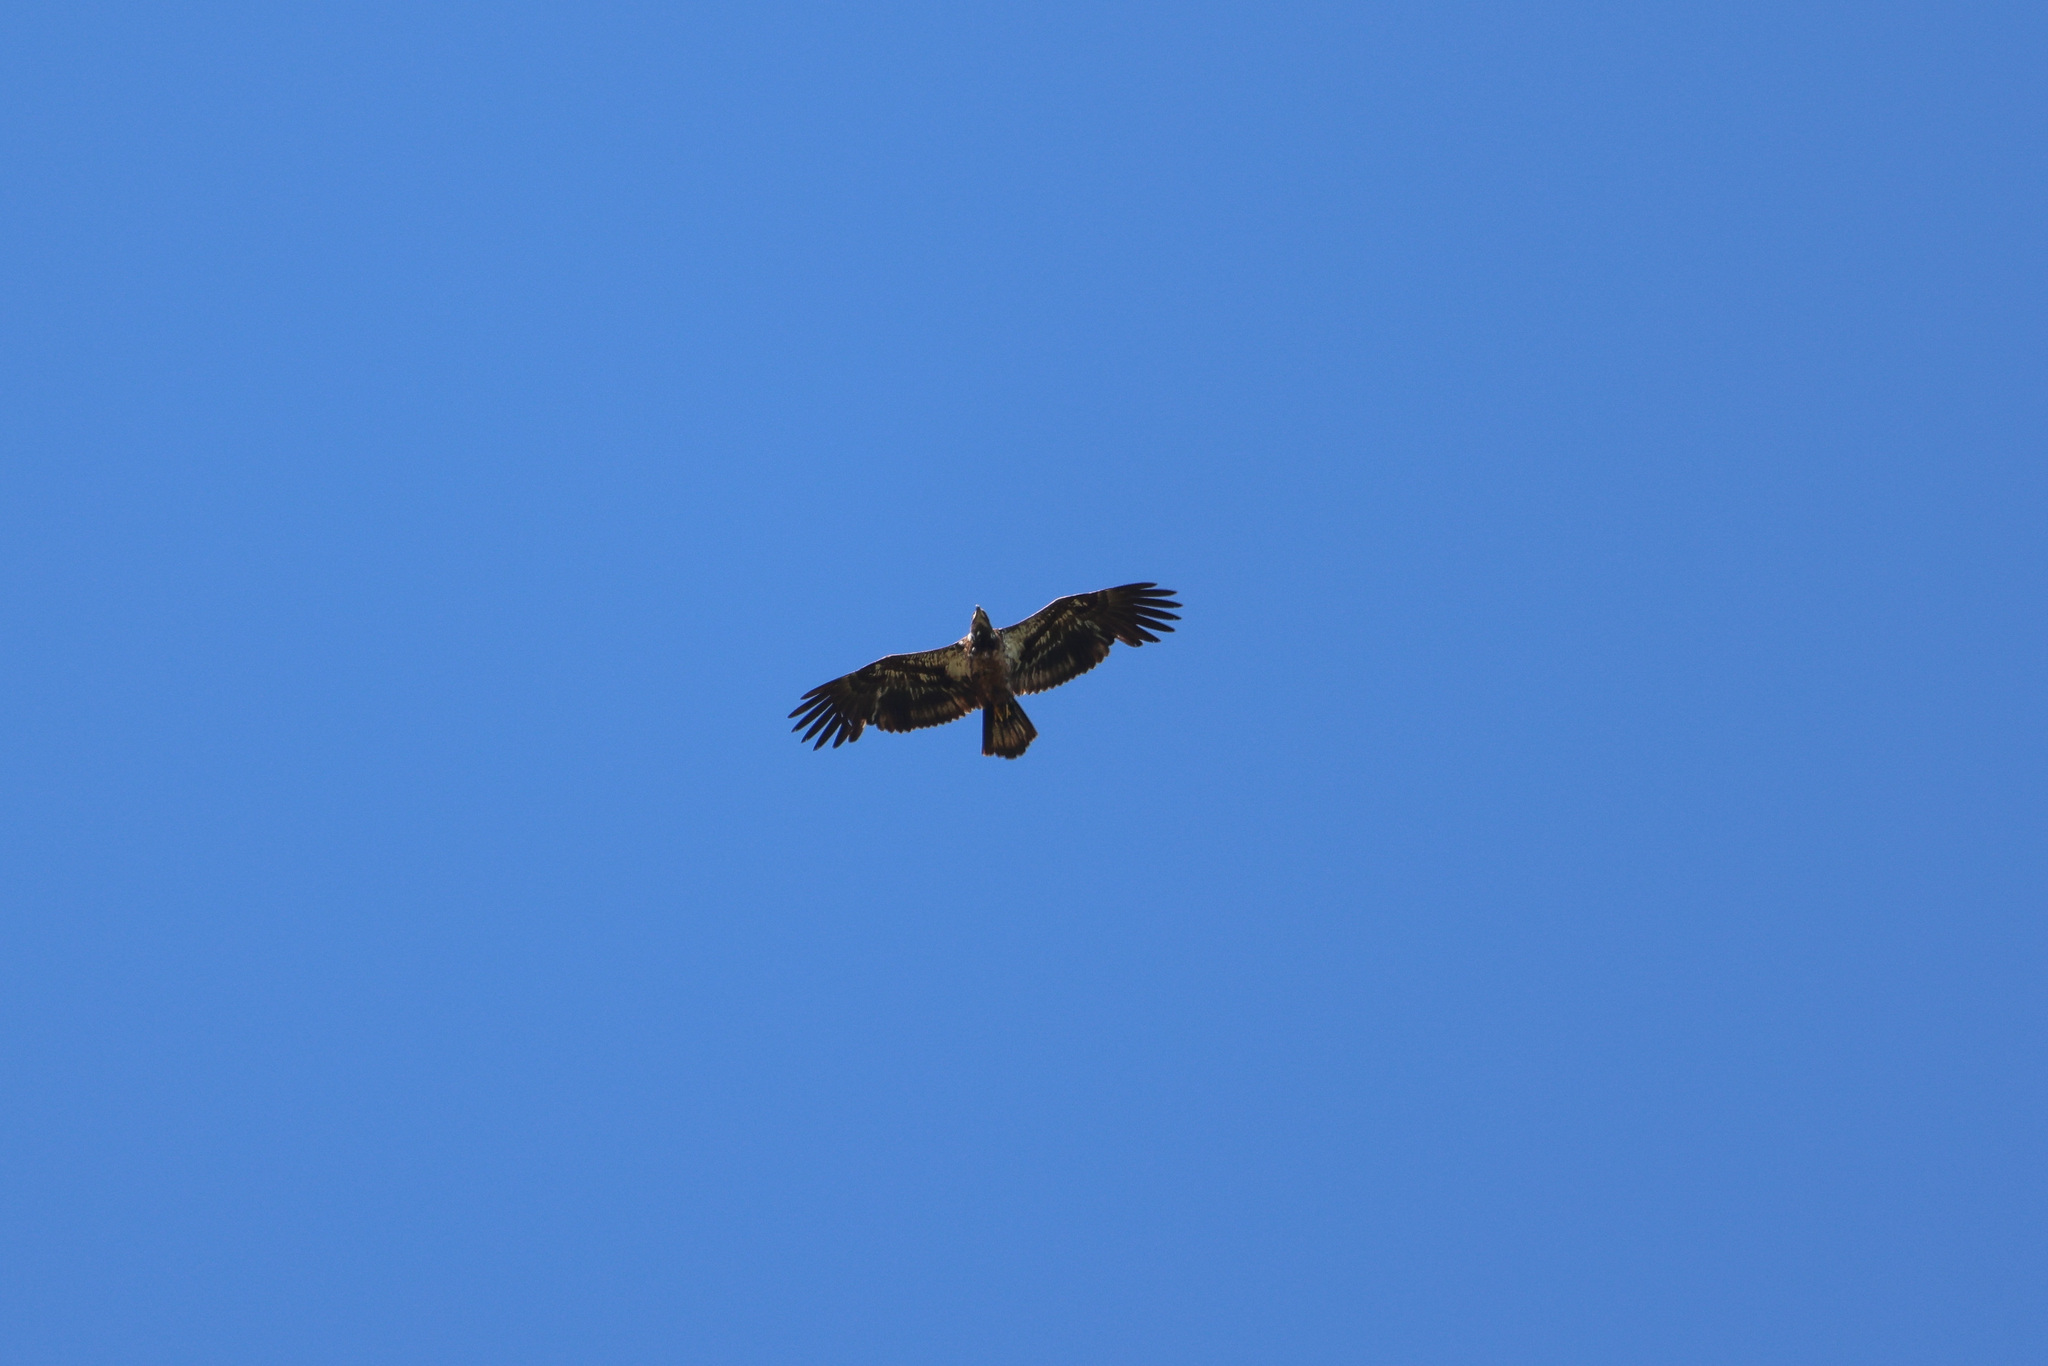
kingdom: Animalia
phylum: Chordata
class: Aves
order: Accipitriformes
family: Accipitridae
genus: Haliaeetus
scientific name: Haliaeetus leucocephalus
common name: Bald eagle
